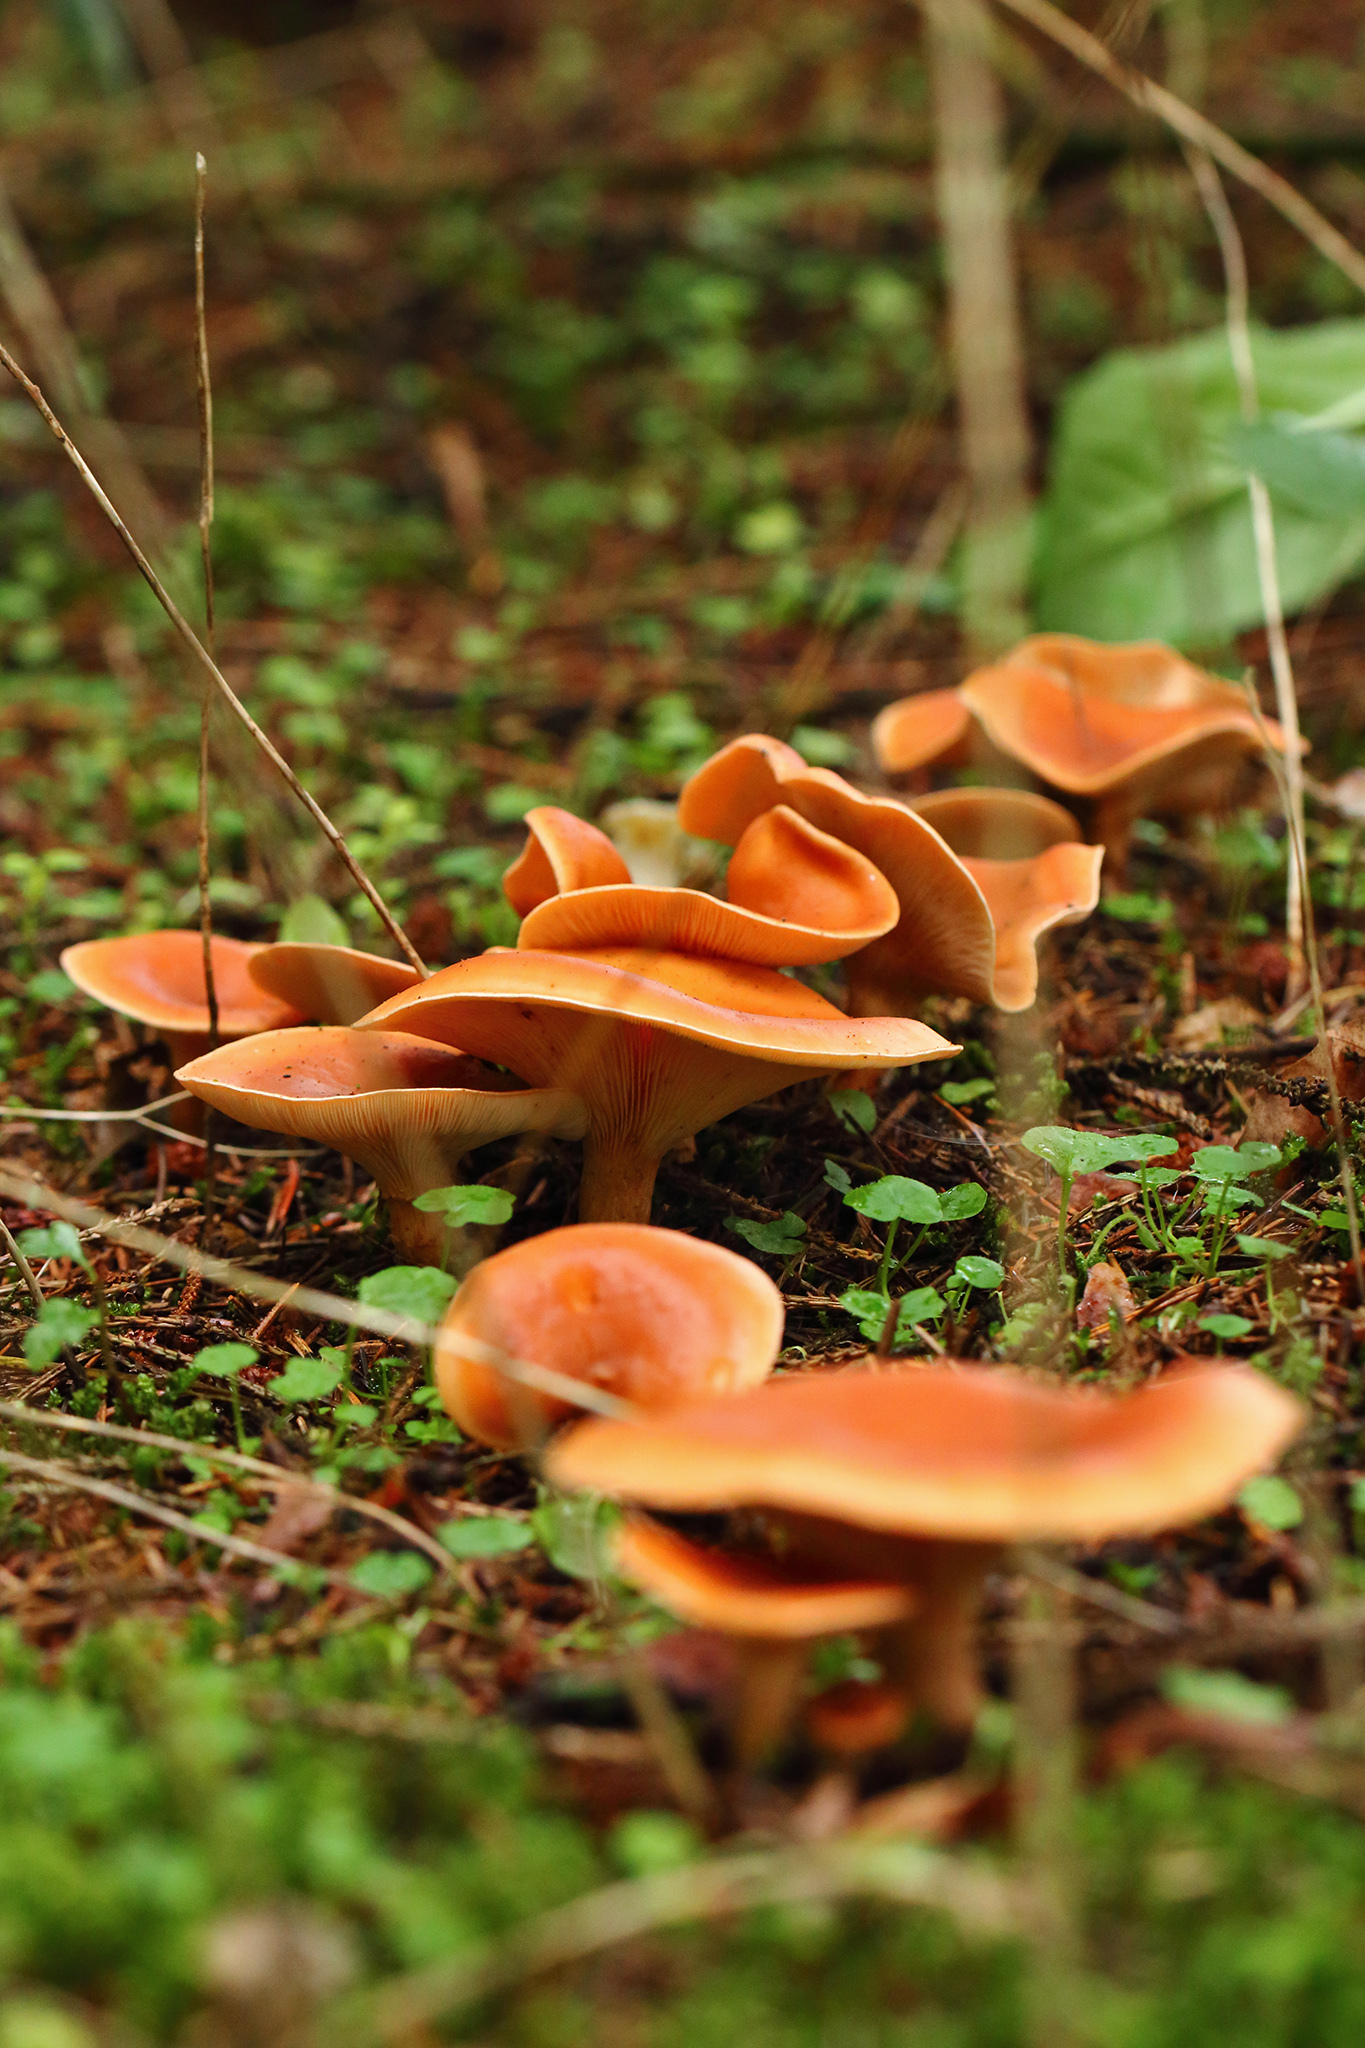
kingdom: Fungi
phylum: Basidiomycota
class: Agaricomycetes
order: Agaricales
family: Tricholomataceae
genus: Paralepista
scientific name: Paralepista flaccida
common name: Tawny funnel cap
